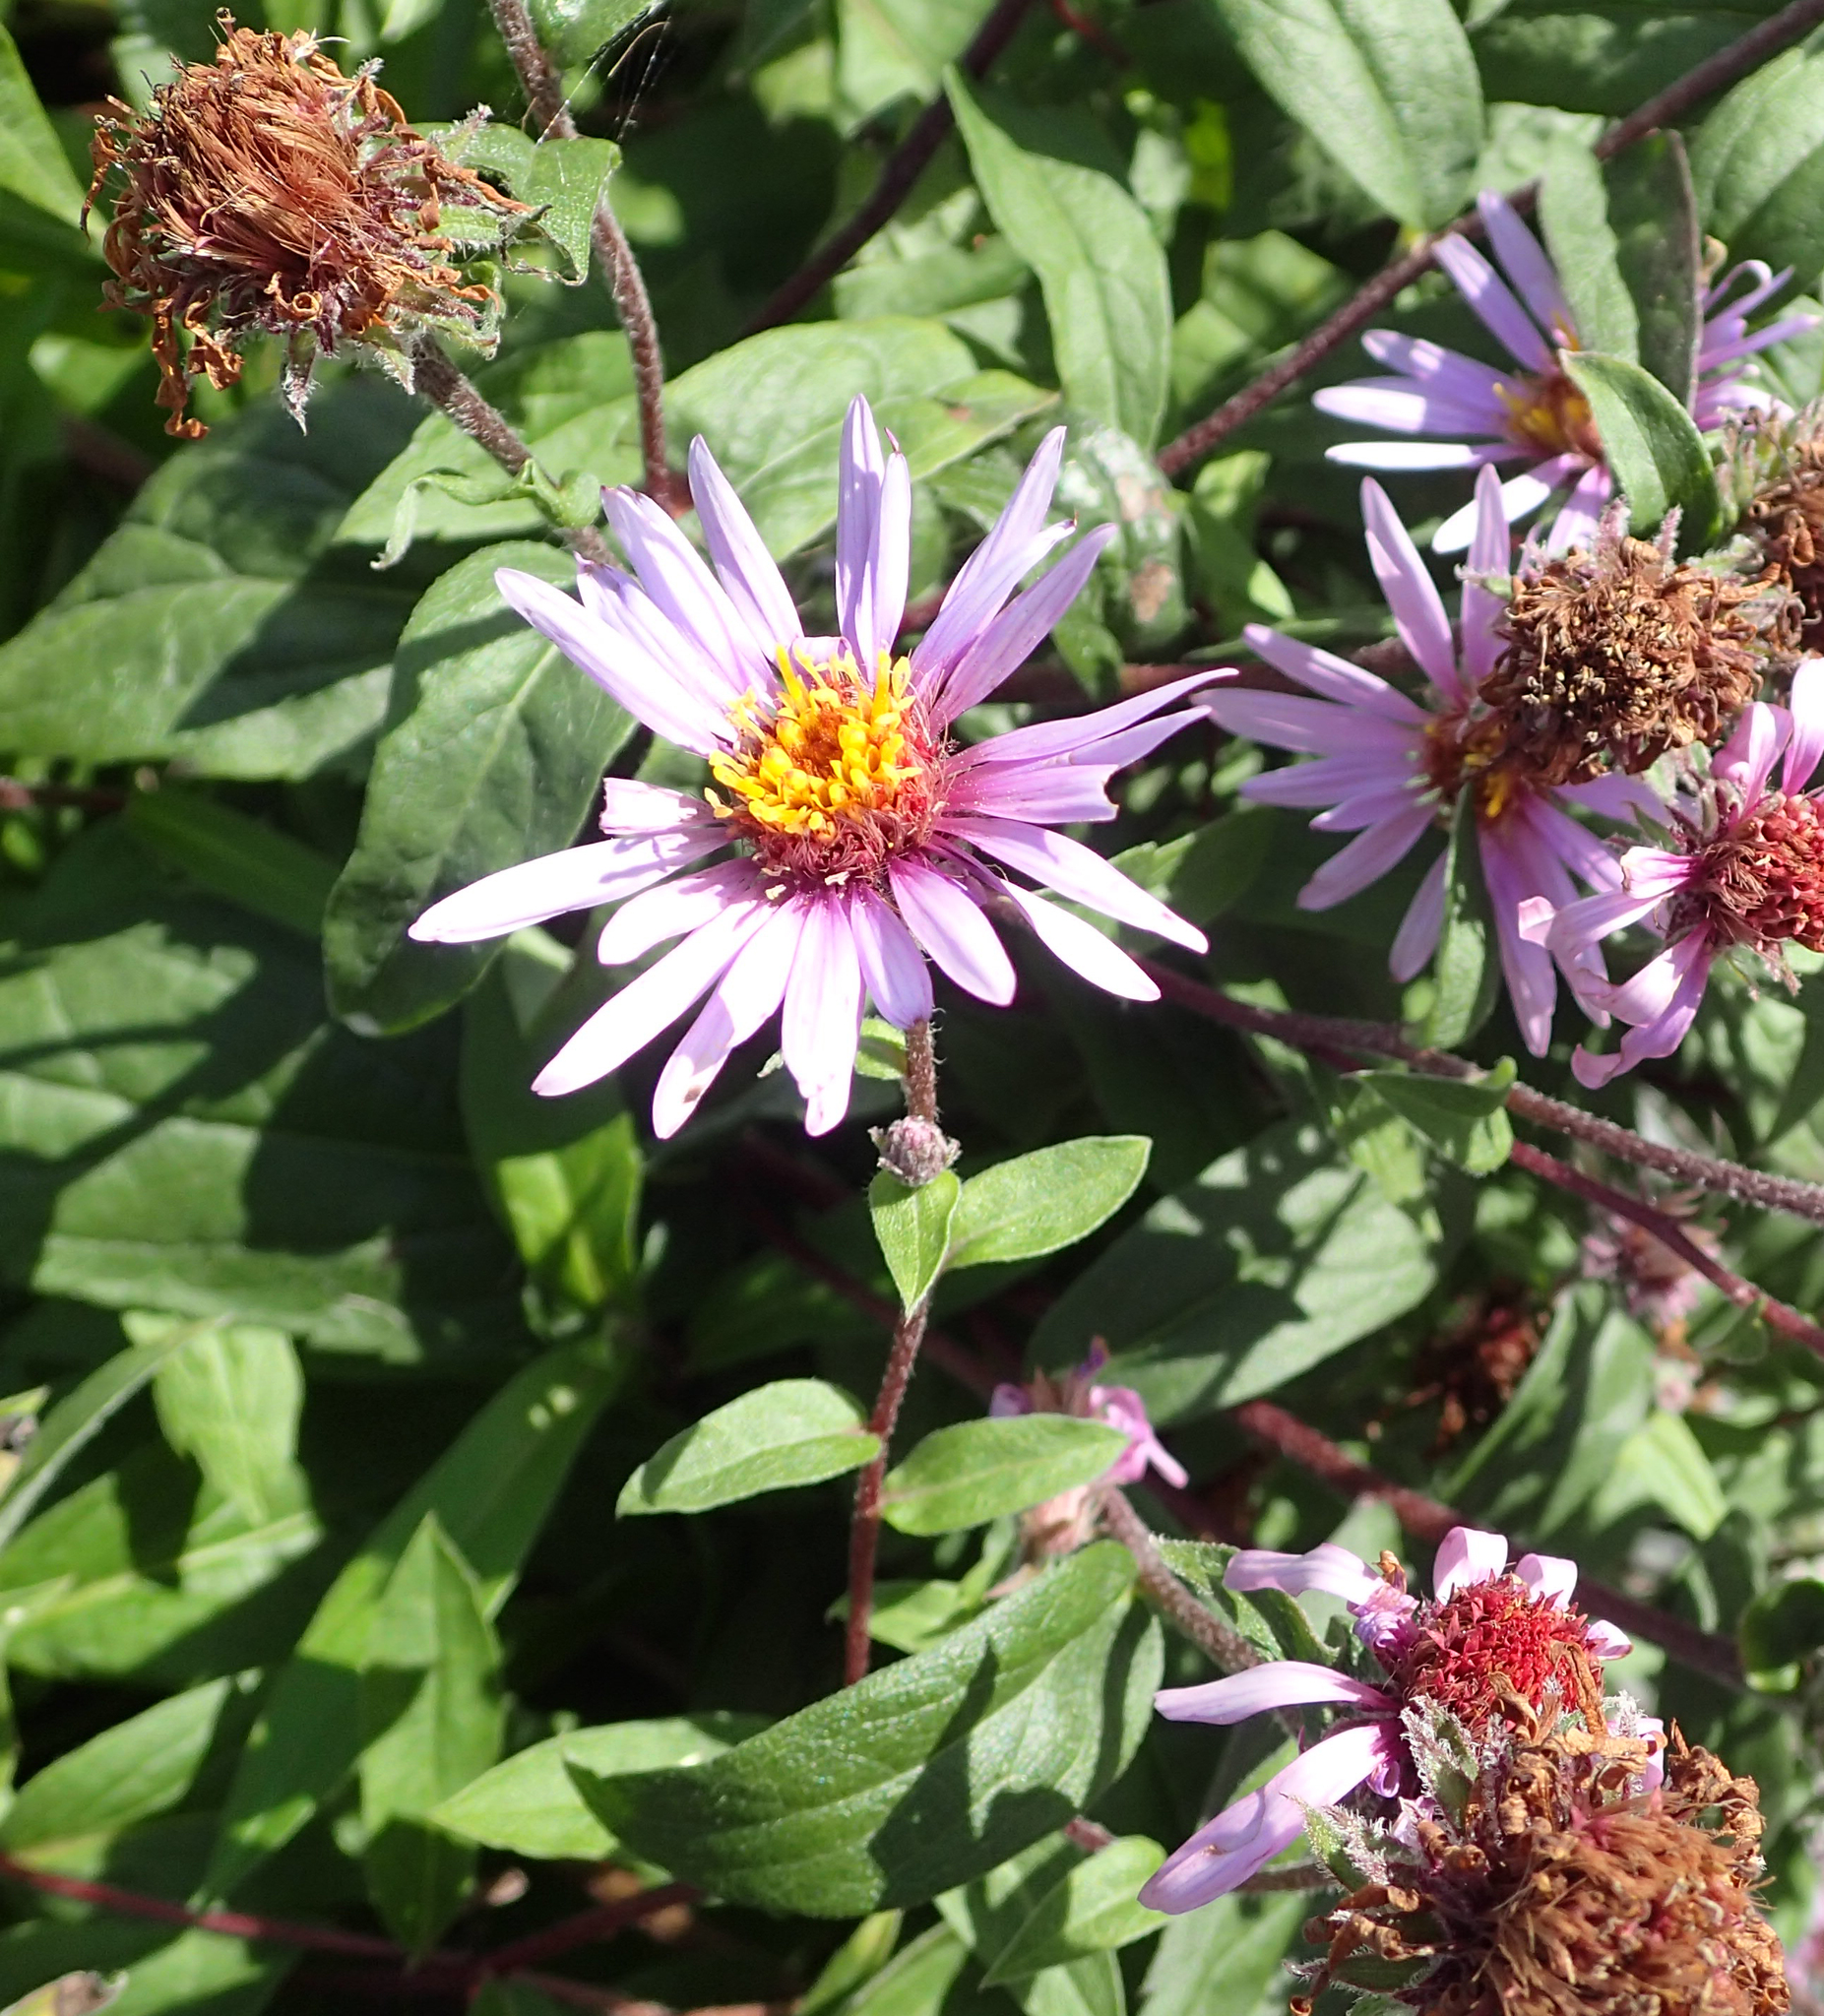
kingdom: Plantae
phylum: Tracheophyta
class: Magnoliopsida
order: Asterales
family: Asteraceae
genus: Eurybia
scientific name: Eurybia sibirica
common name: Arctic aster
